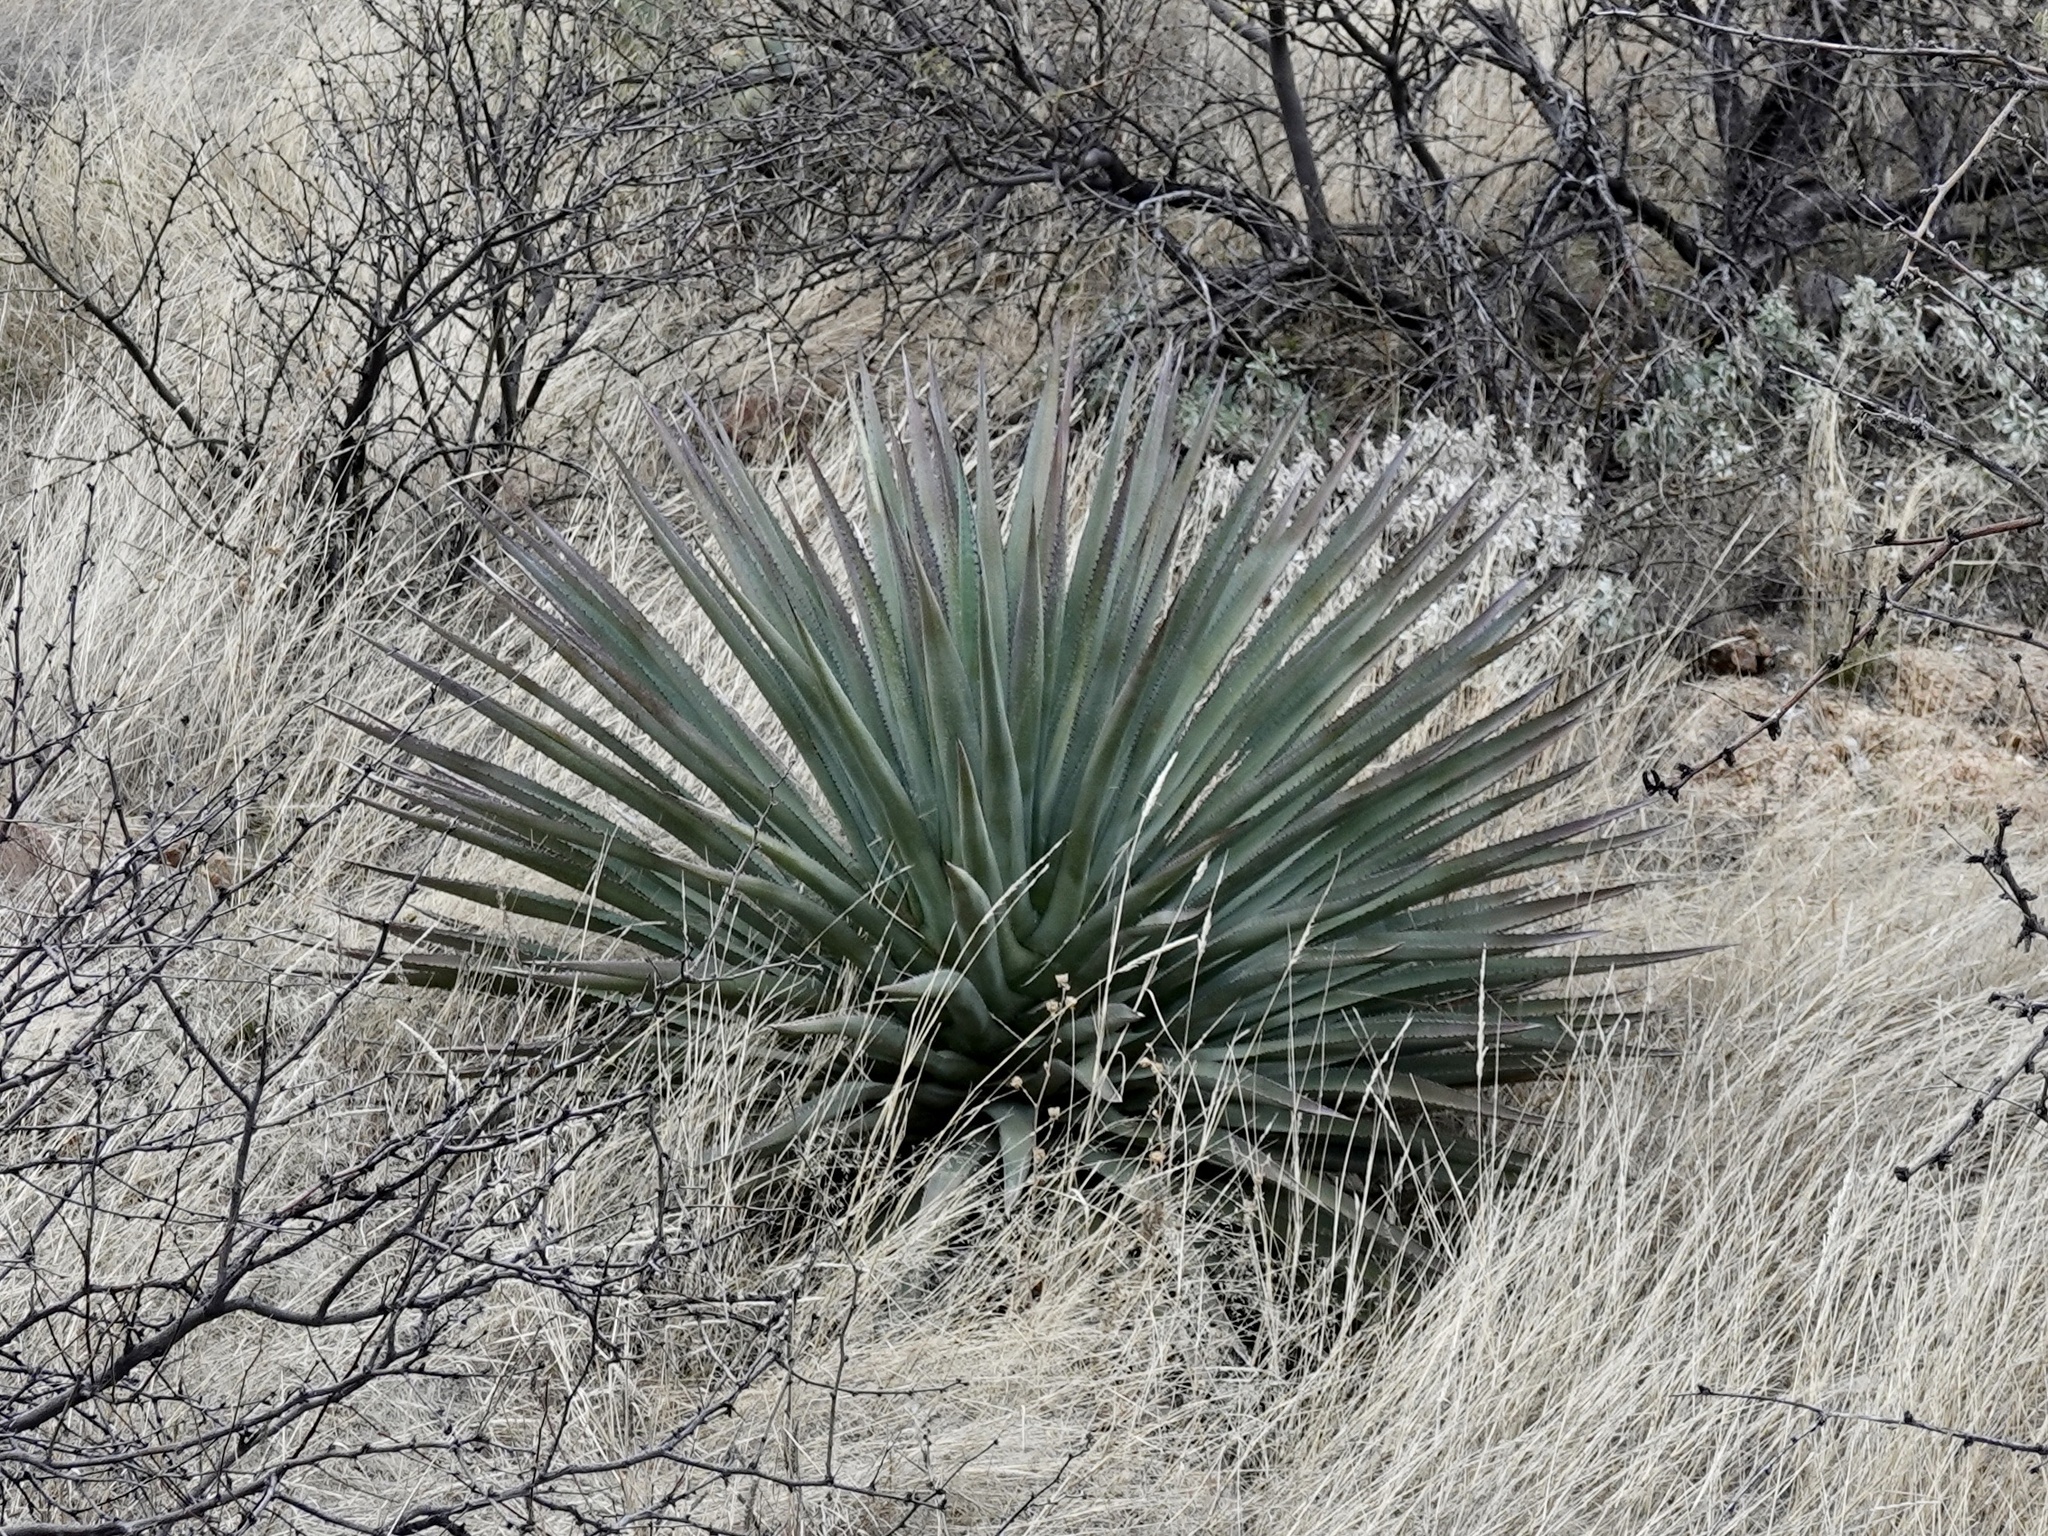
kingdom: Plantae
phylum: Tracheophyta
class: Liliopsida
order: Asparagales
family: Asparagaceae
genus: Agave
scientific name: Agave palmeri
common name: Palmer agave
